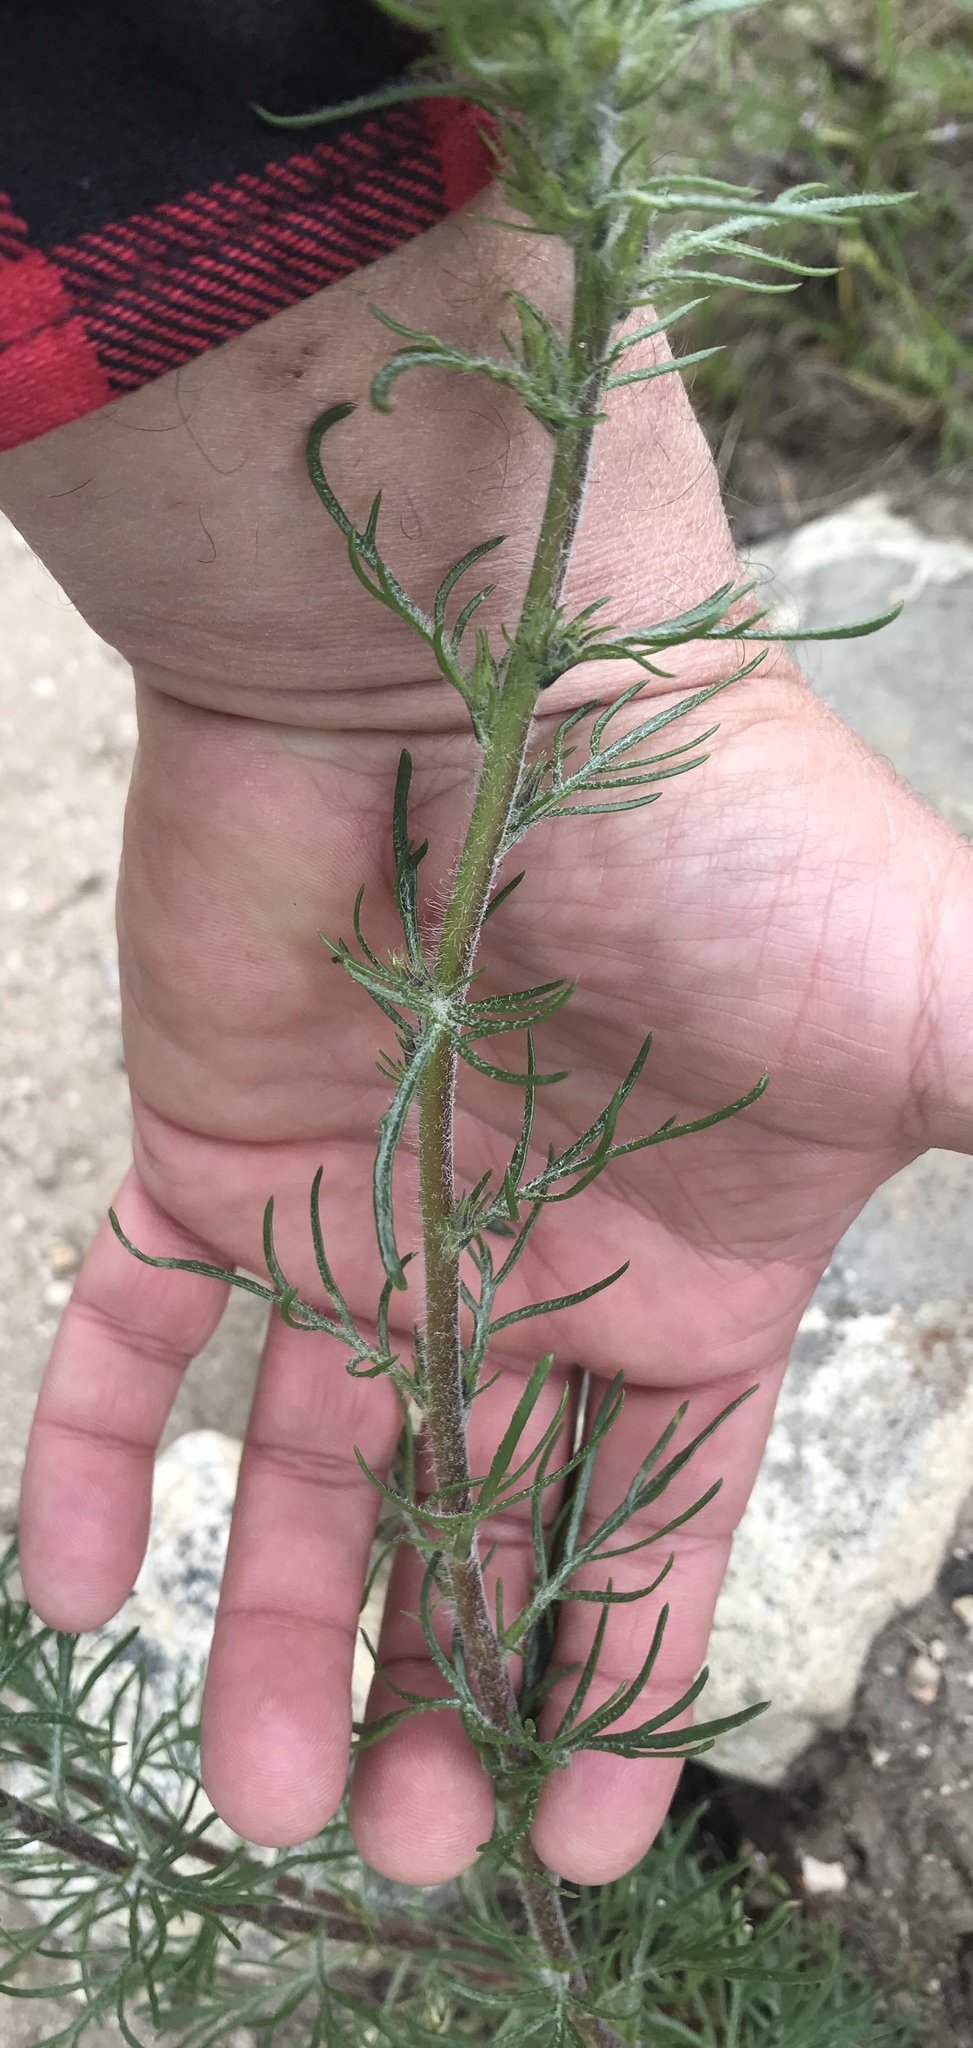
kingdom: Plantae
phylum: Tracheophyta
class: Magnoliopsida
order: Ericales
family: Polemoniaceae
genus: Ipomopsis
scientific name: Ipomopsis aggregata
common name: Scarlet gilia
